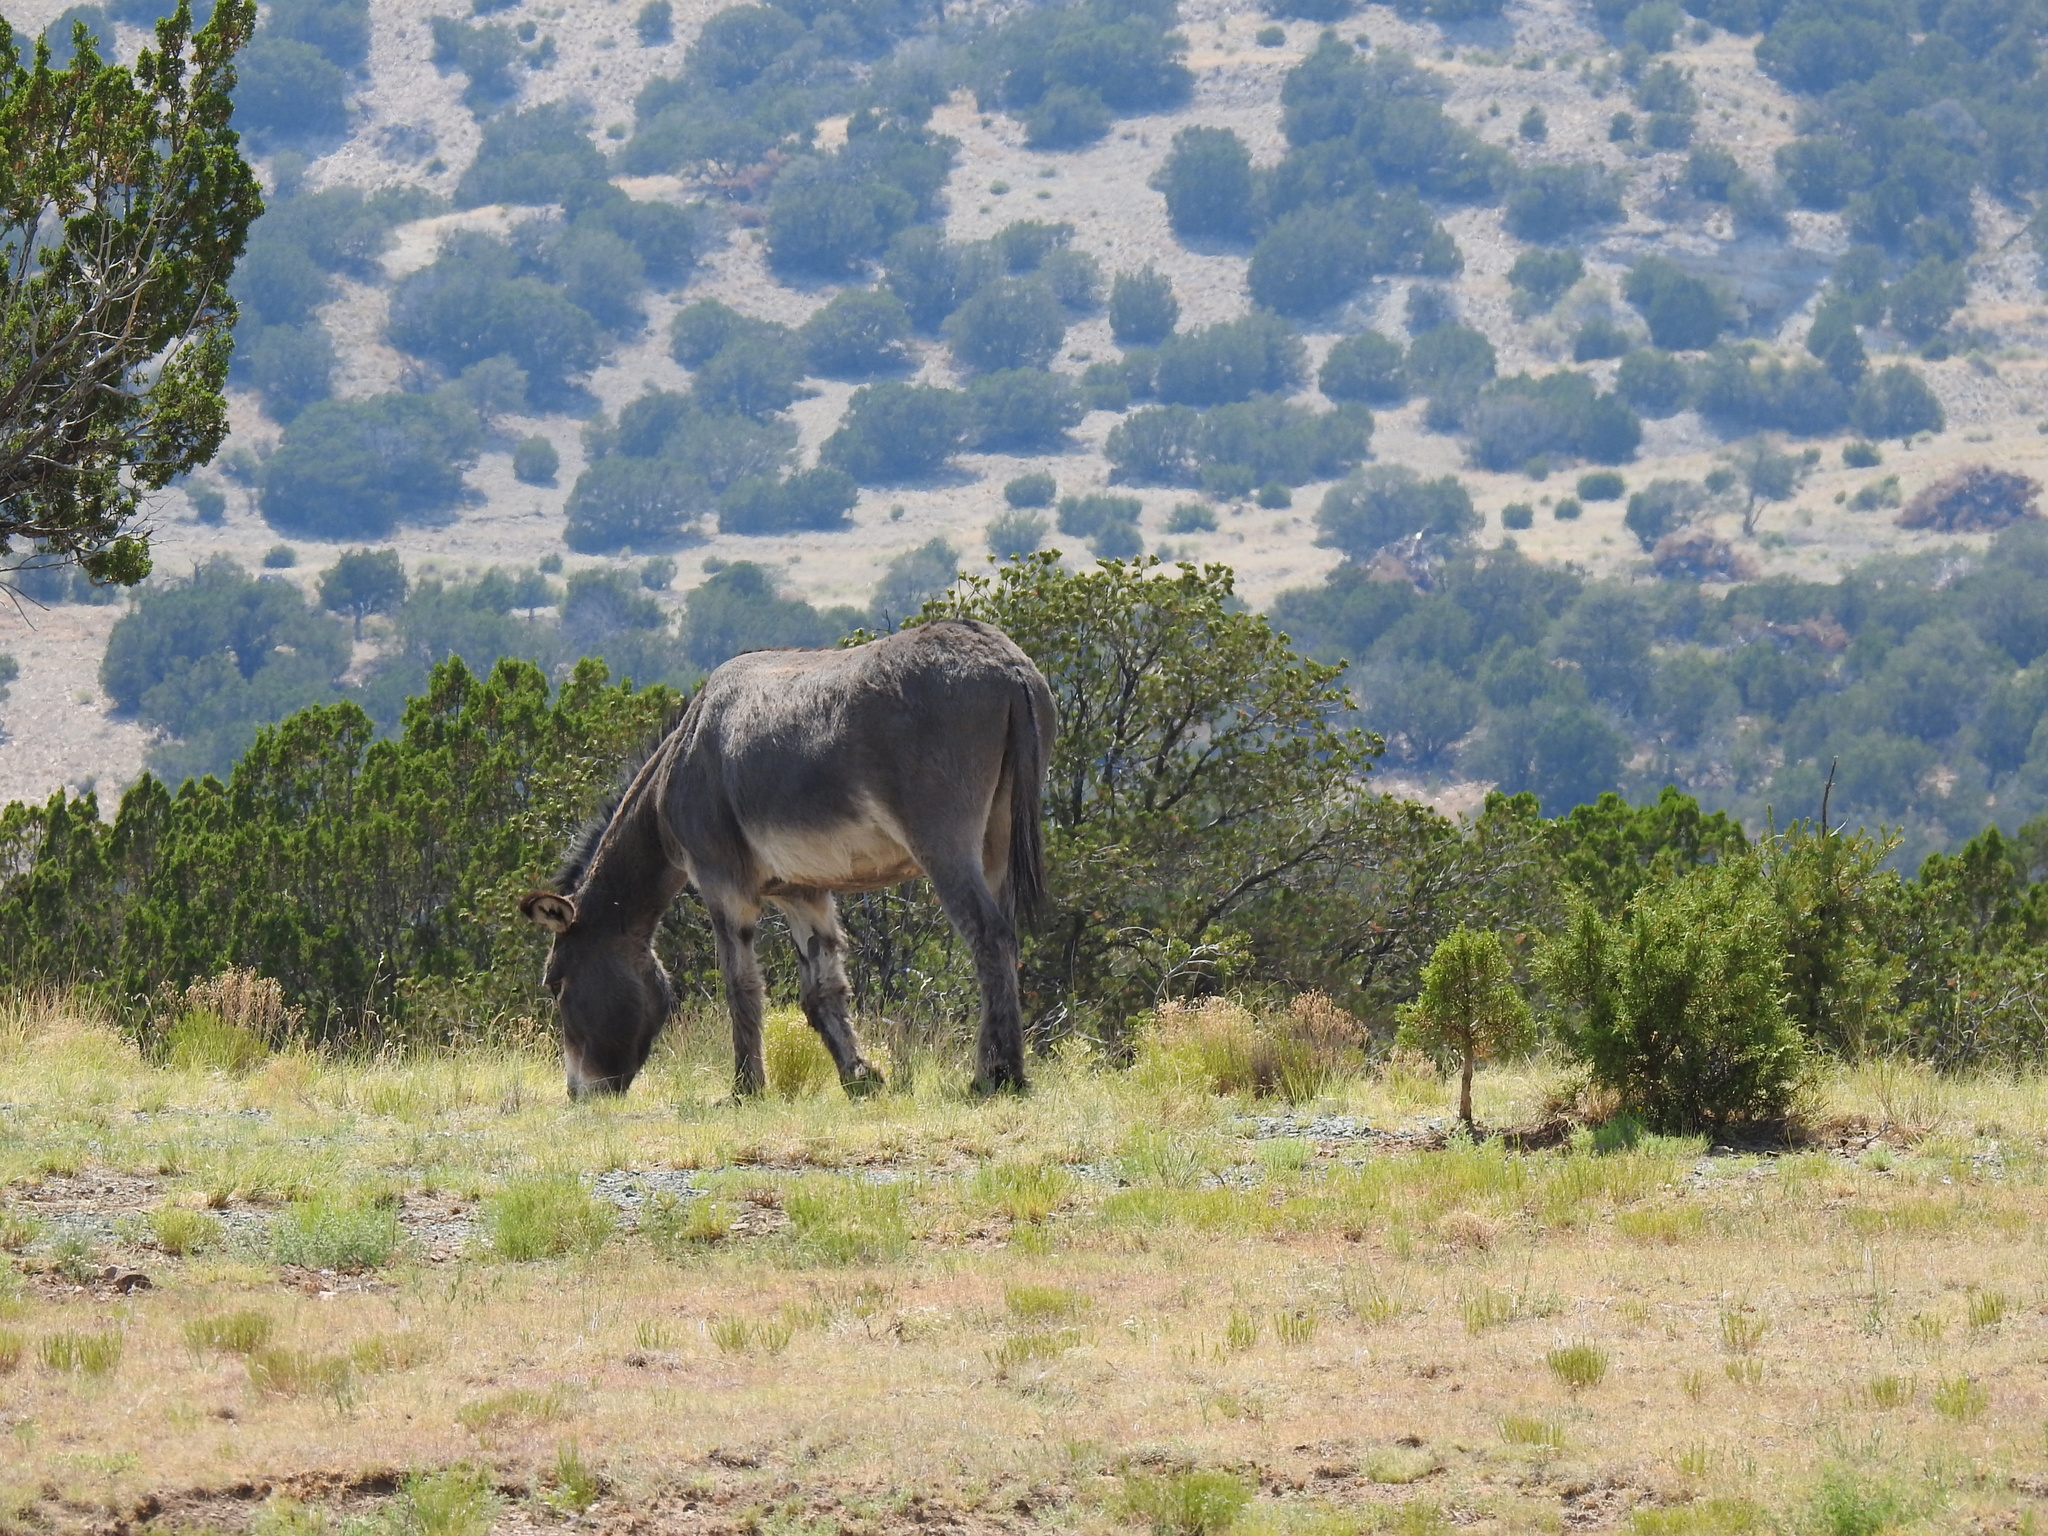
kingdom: Animalia
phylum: Chordata
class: Mammalia
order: Perissodactyla
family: Equidae
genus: Equus
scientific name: Equus asinus
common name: Ass
